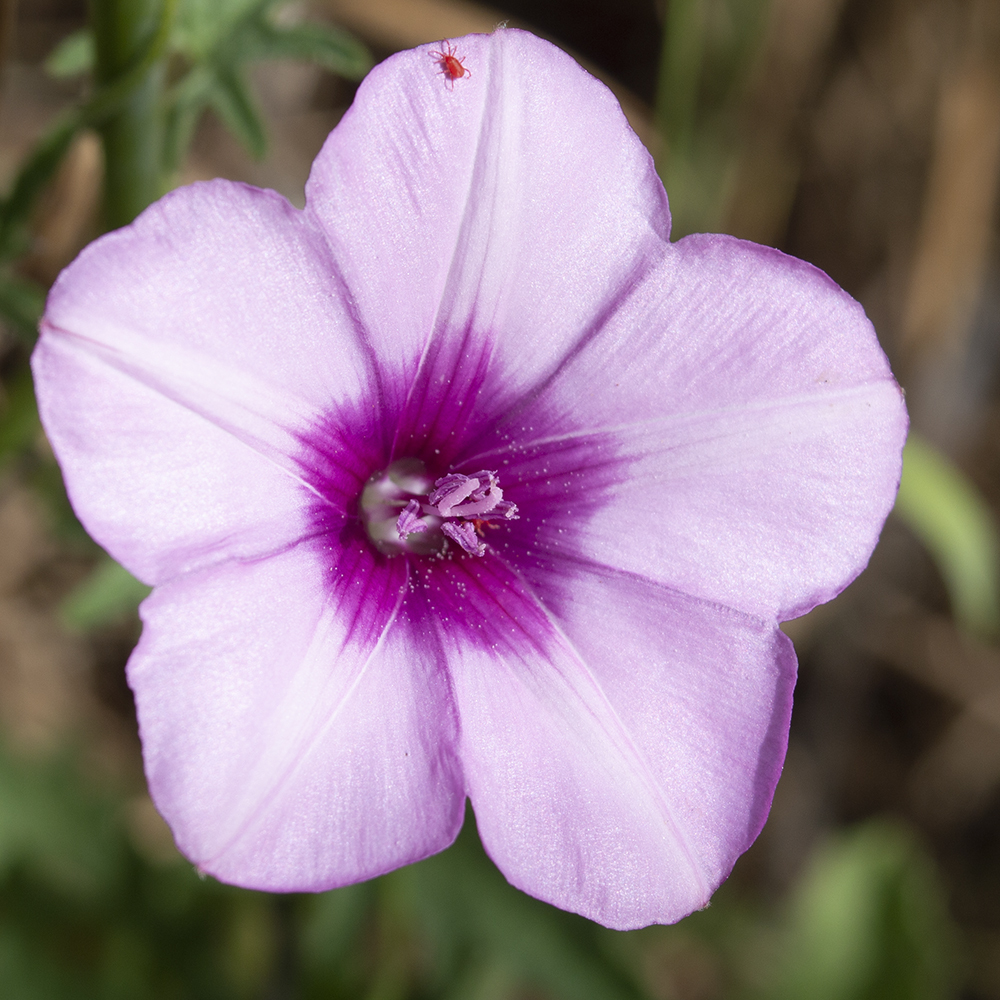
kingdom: Plantae
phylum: Tracheophyta
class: Magnoliopsida
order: Solanales
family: Convolvulaceae
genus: Convolvulus
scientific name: Convolvulus althaeoides
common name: Mallow bindweed
